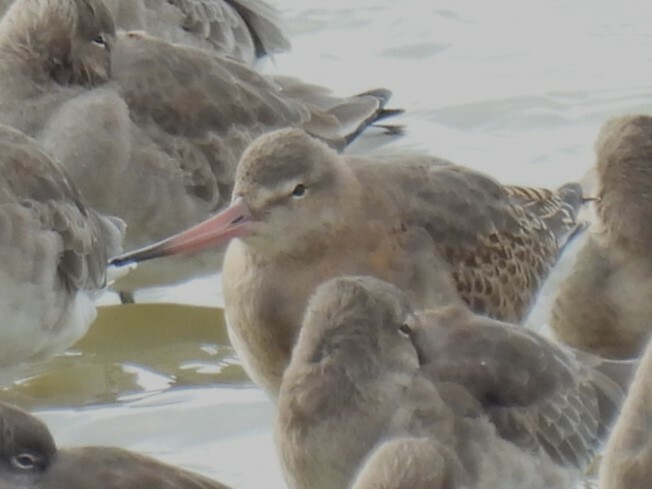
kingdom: Animalia
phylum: Chordata
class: Aves
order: Charadriiformes
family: Scolopacidae
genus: Limosa
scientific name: Limosa limosa
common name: Black-tailed godwit
